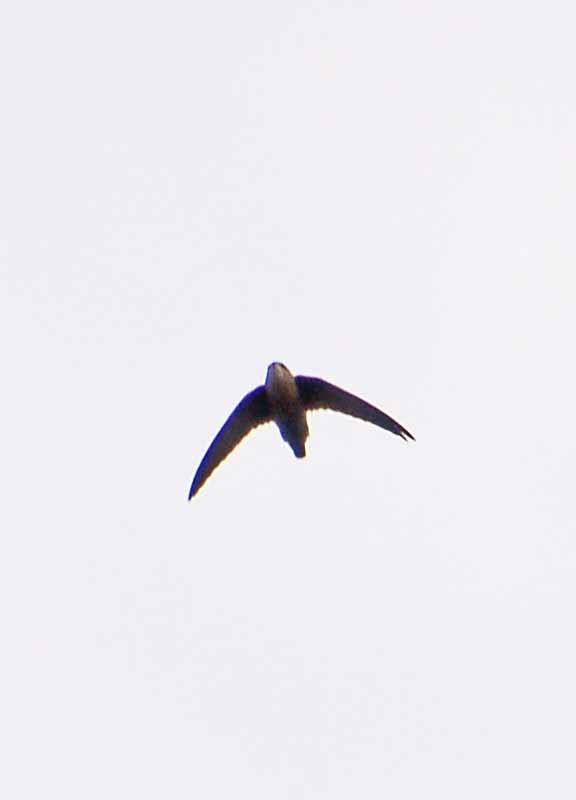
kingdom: Animalia
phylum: Chordata
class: Aves
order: Apodiformes
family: Apodidae
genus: Chaetura
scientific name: Chaetura vauxi
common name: Vaux's swift
